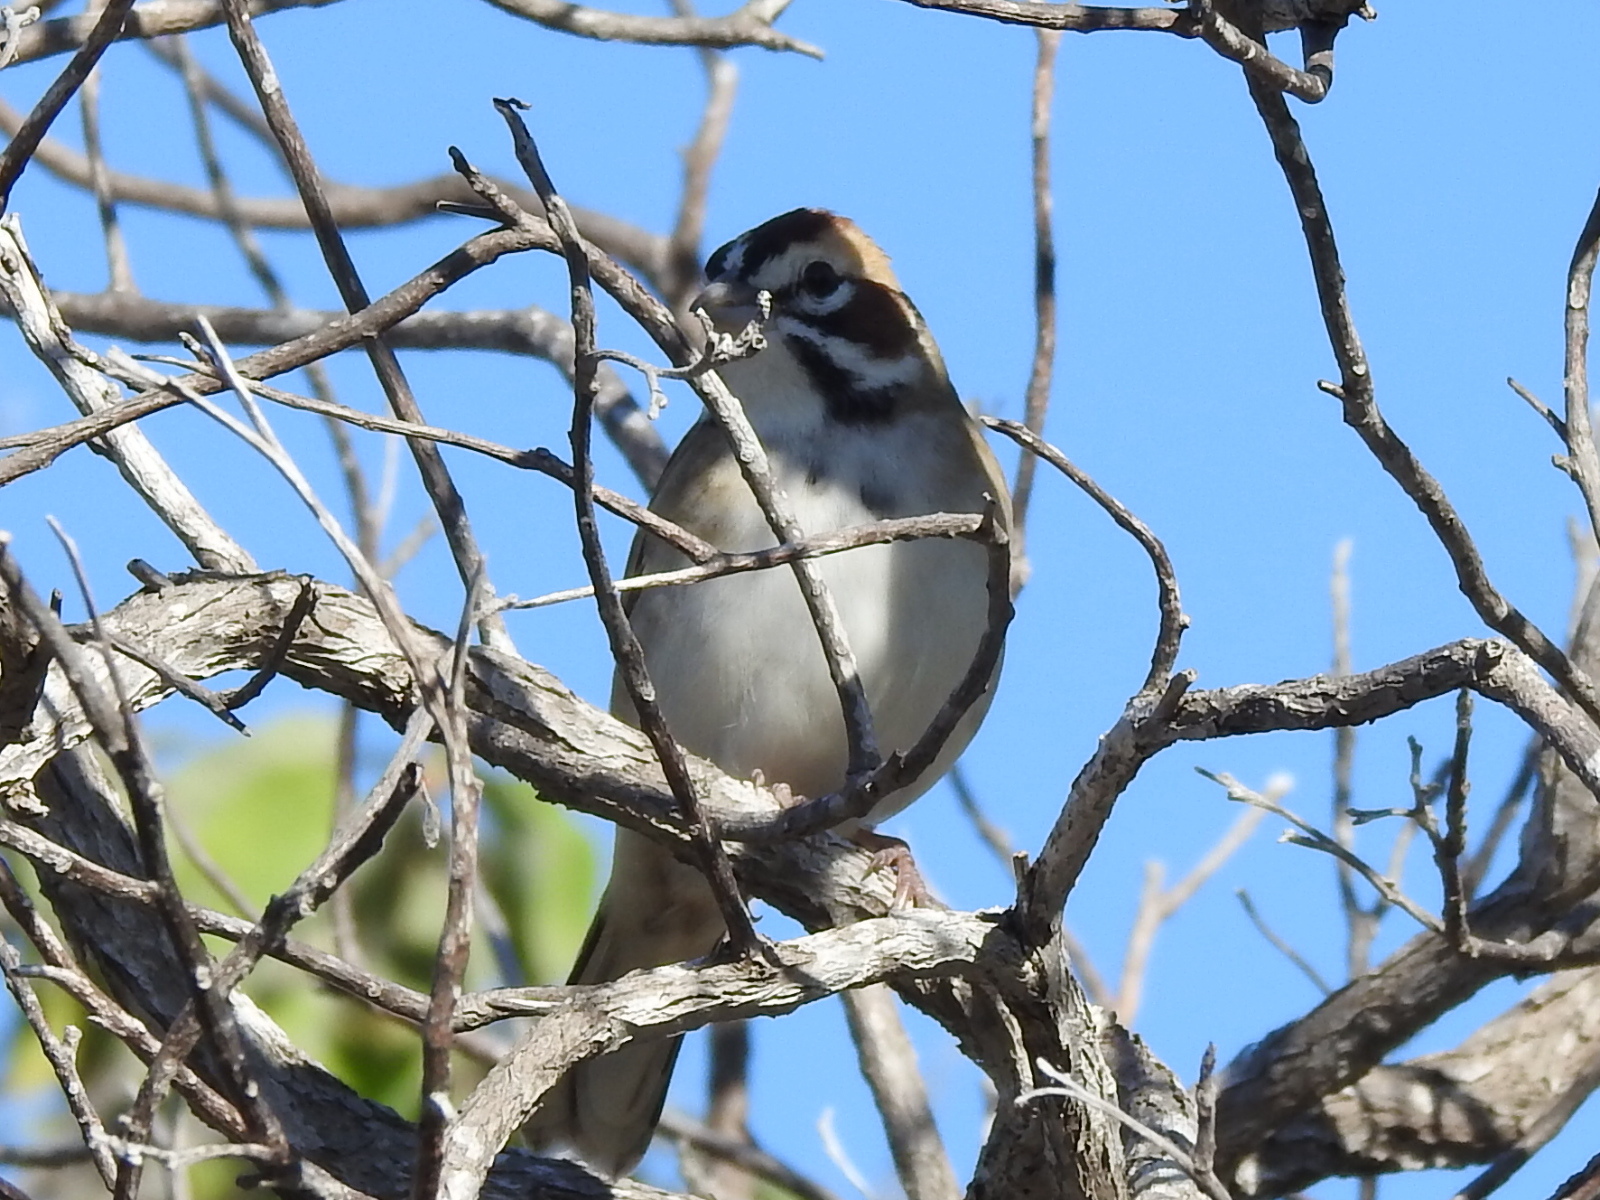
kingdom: Animalia
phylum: Chordata
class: Aves
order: Passeriformes
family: Passerellidae
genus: Chondestes
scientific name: Chondestes grammacus
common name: Lark sparrow
